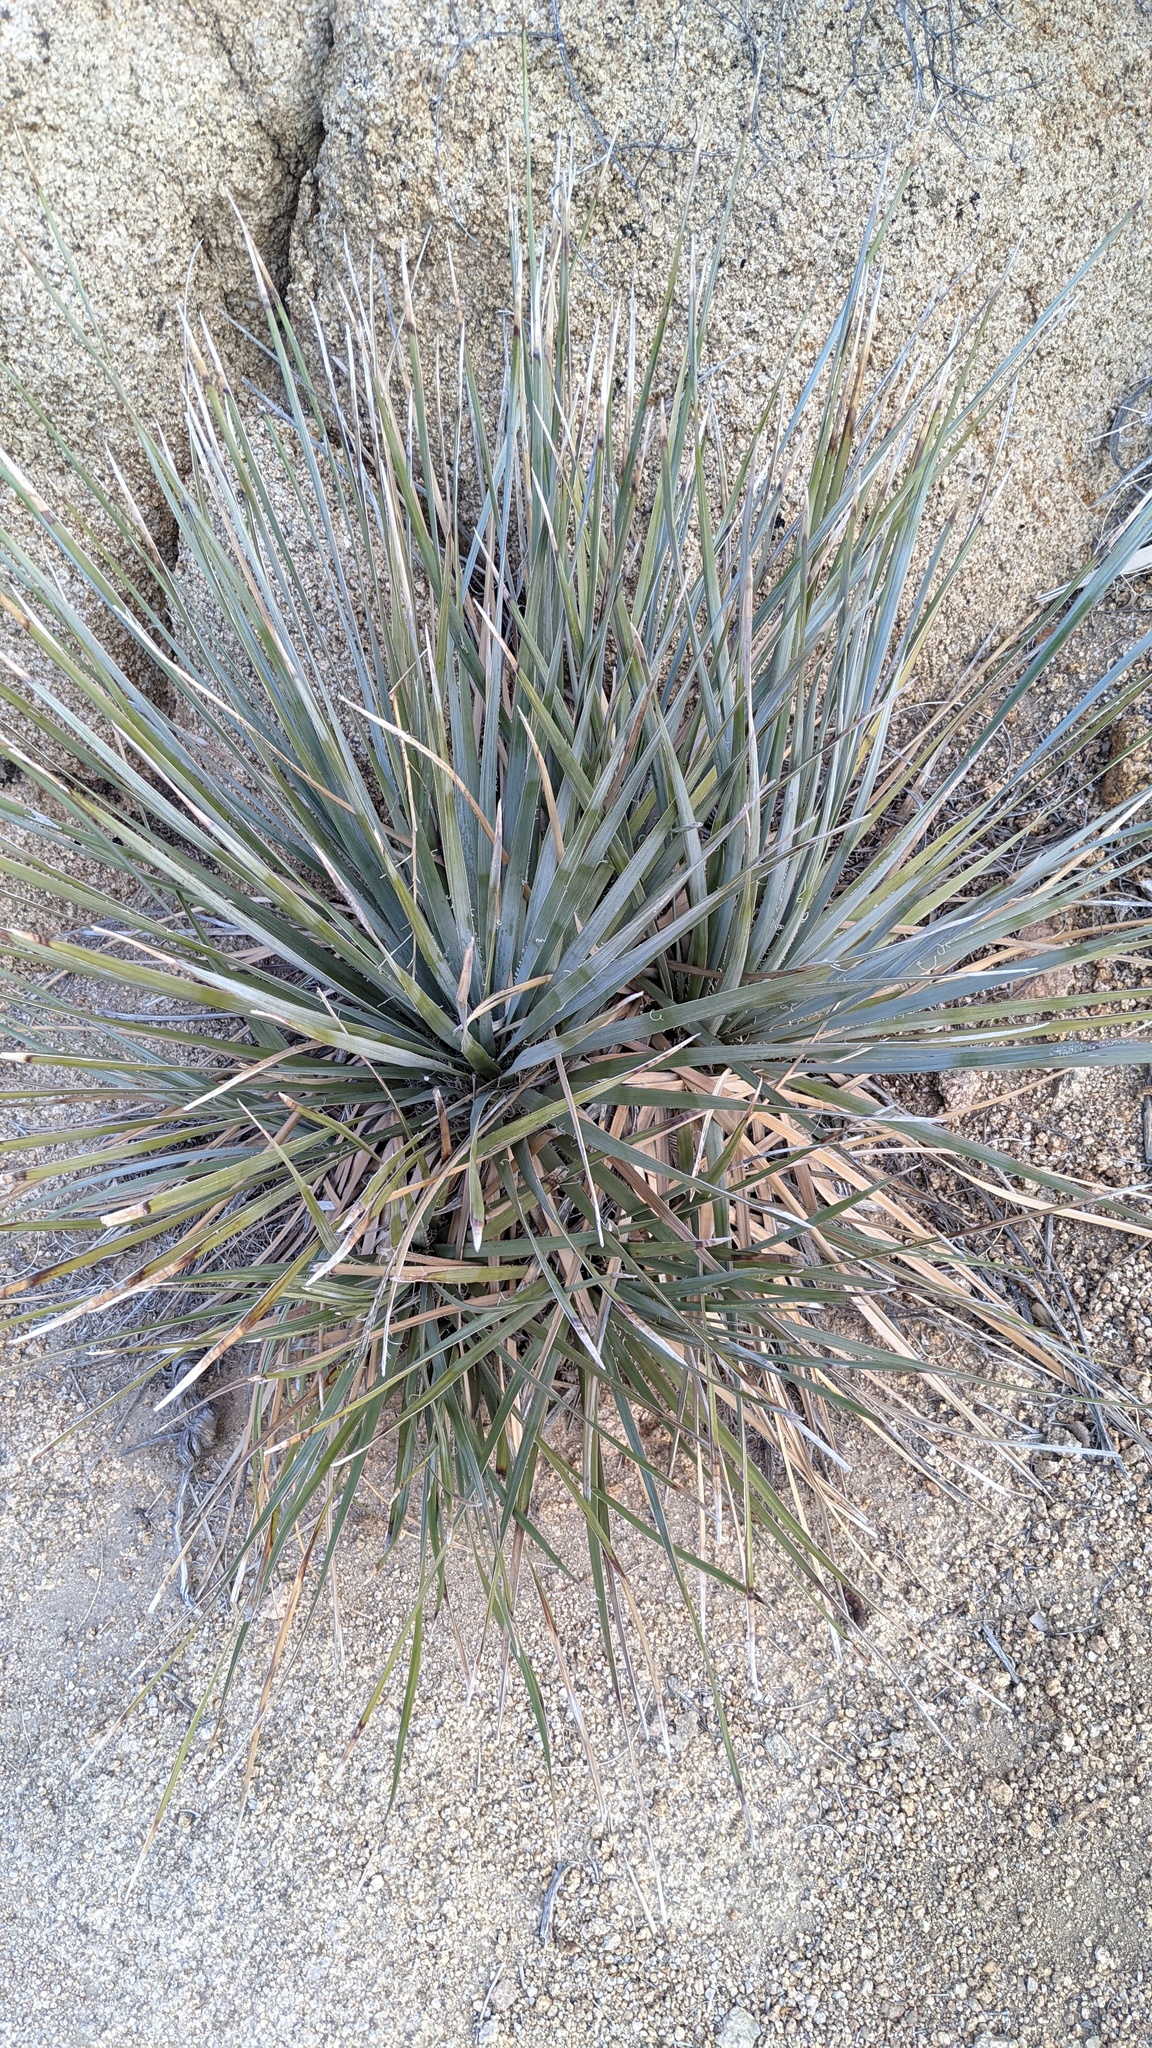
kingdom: Plantae
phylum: Tracheophyta
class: Liliopsida
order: Asparagales
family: Asparagaceae
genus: Nolina
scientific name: Nolina bigelovii
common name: Bigelow bear-grass
